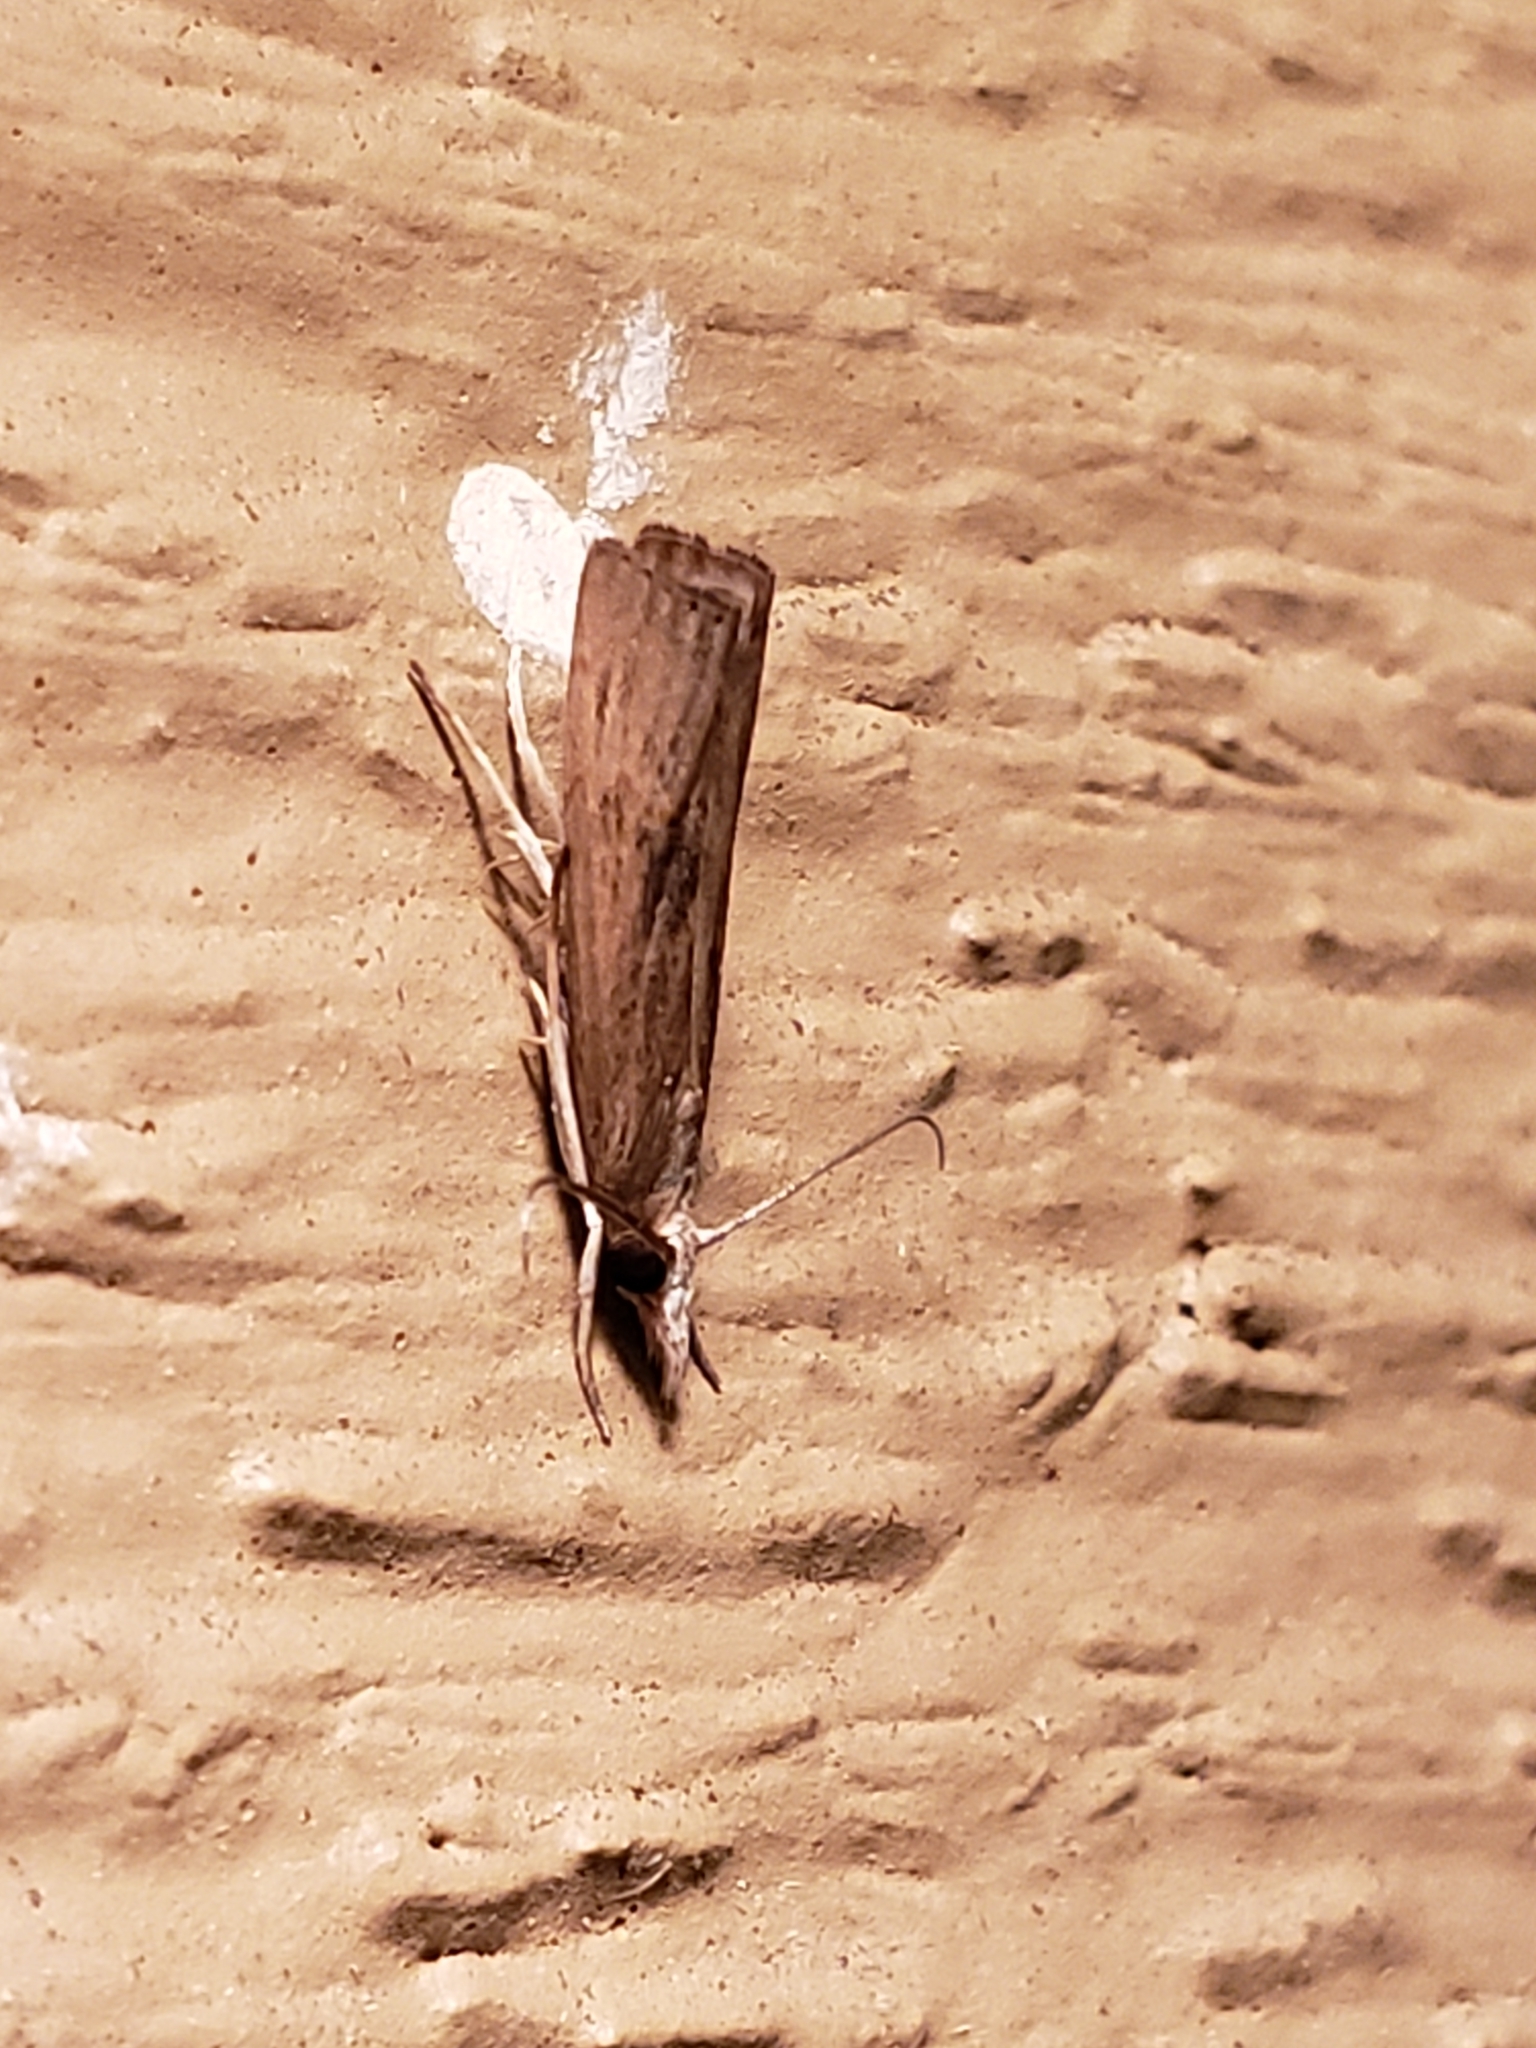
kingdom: Animalia
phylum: Arthropoda
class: Insecta
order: Lepidoptera
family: Crambidae
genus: Parapediasia
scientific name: Parapediasia teterellus
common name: Bluegrass webworm moth
